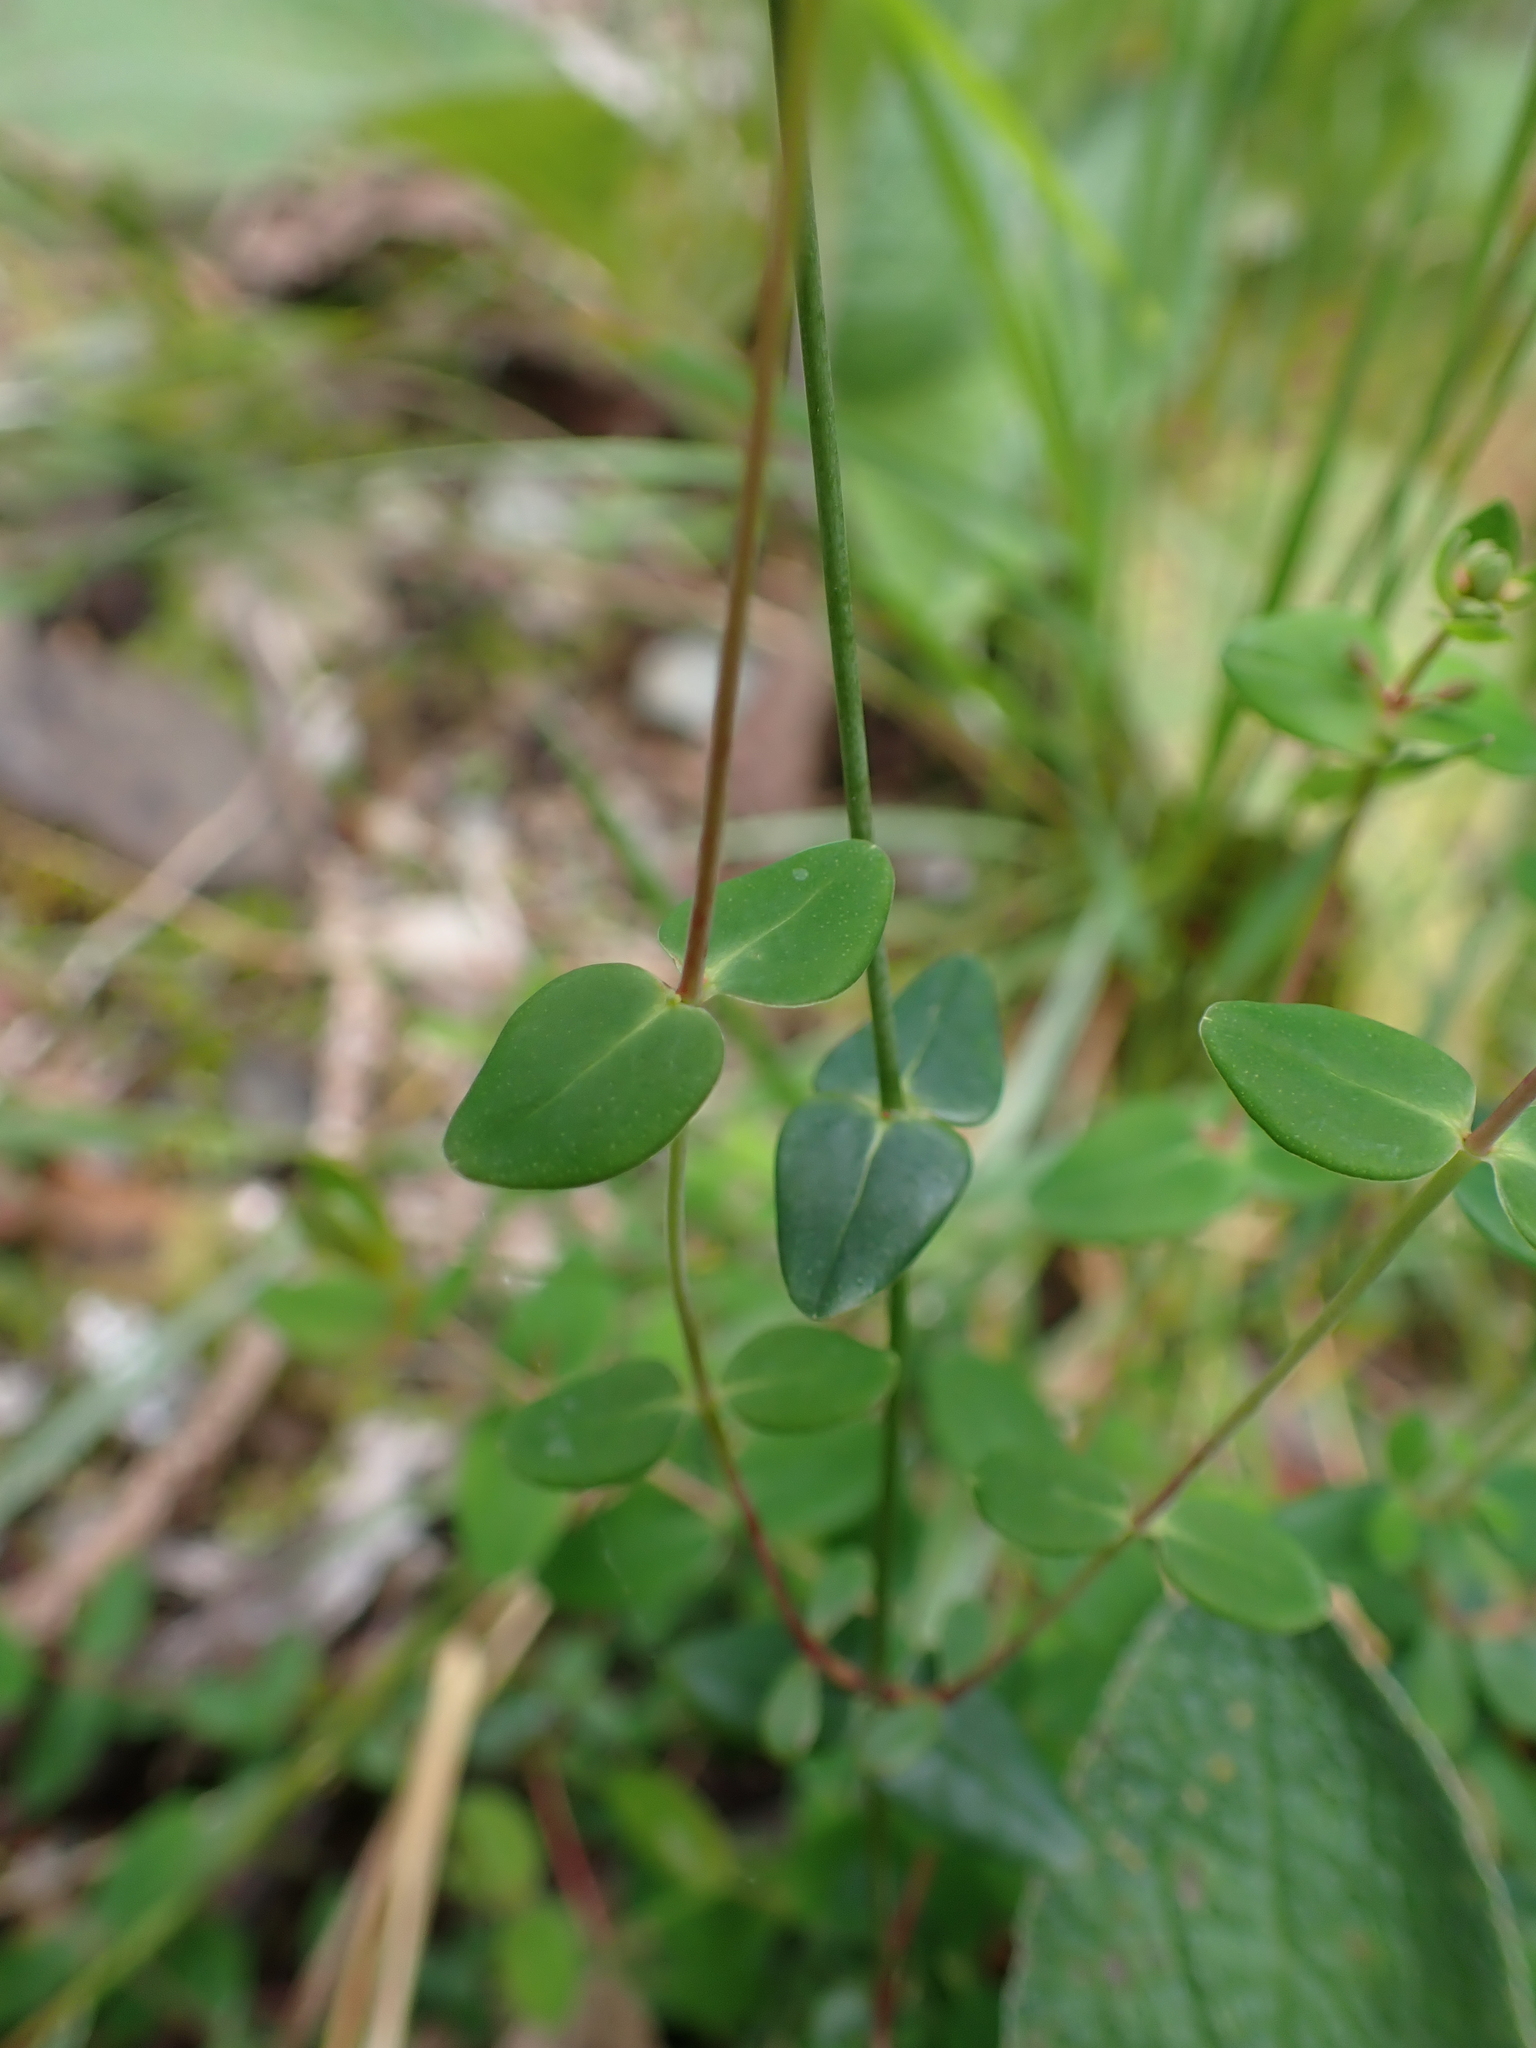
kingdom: Plantae
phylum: Tracheophyta
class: Magnoliopsida
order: Malpighiales
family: Hypericaceae
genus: Hypericum
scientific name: Hypericum pulchrum
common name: Slender st. john's-wort
